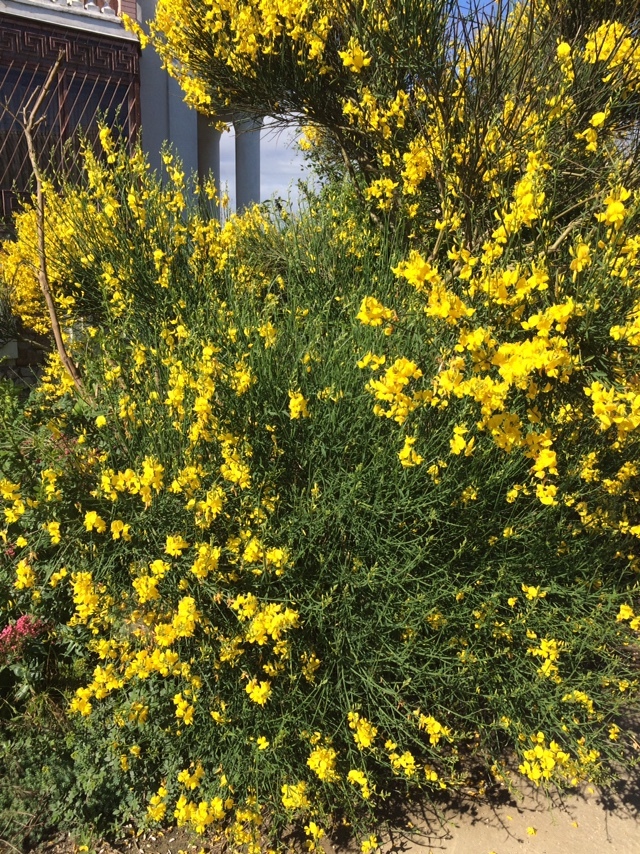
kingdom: Plantae
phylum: Tracheophyta
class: Magnoliopsida
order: Fabales
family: Fabaceae
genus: Spartium
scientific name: Spartium junceum
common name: Spanish broom
